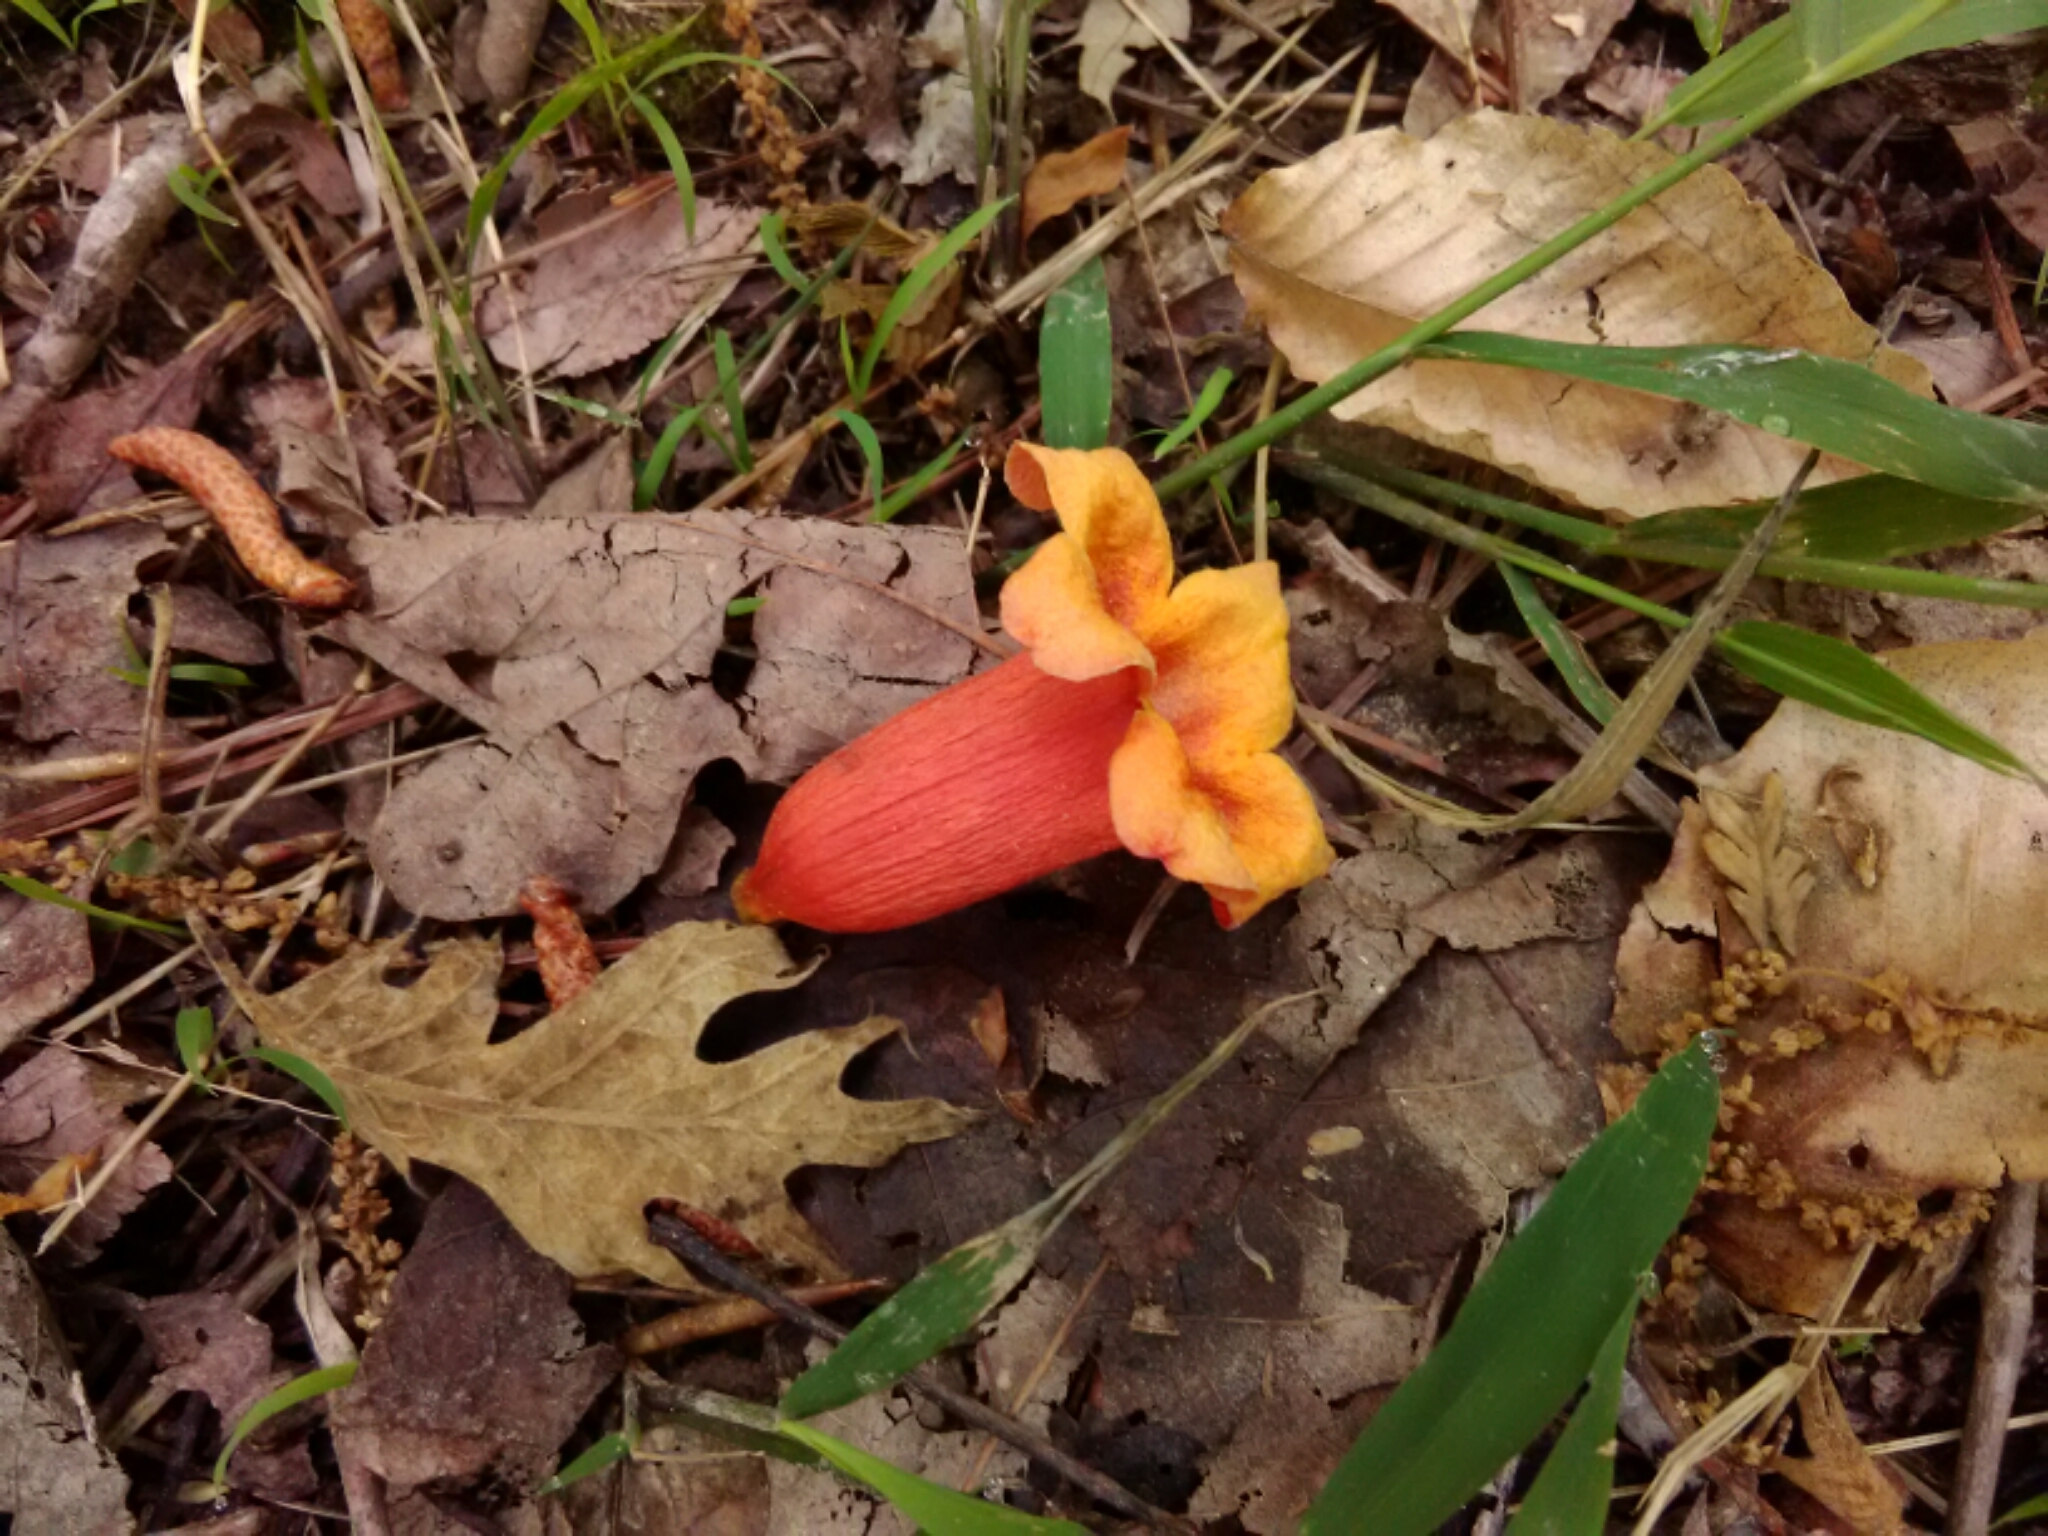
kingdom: Plantae
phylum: Tracheophyta
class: Magnoliopsida
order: Lamiales
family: Bignoniaceae
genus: Bignonia
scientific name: Bignonia capreolata
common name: Crossvine
